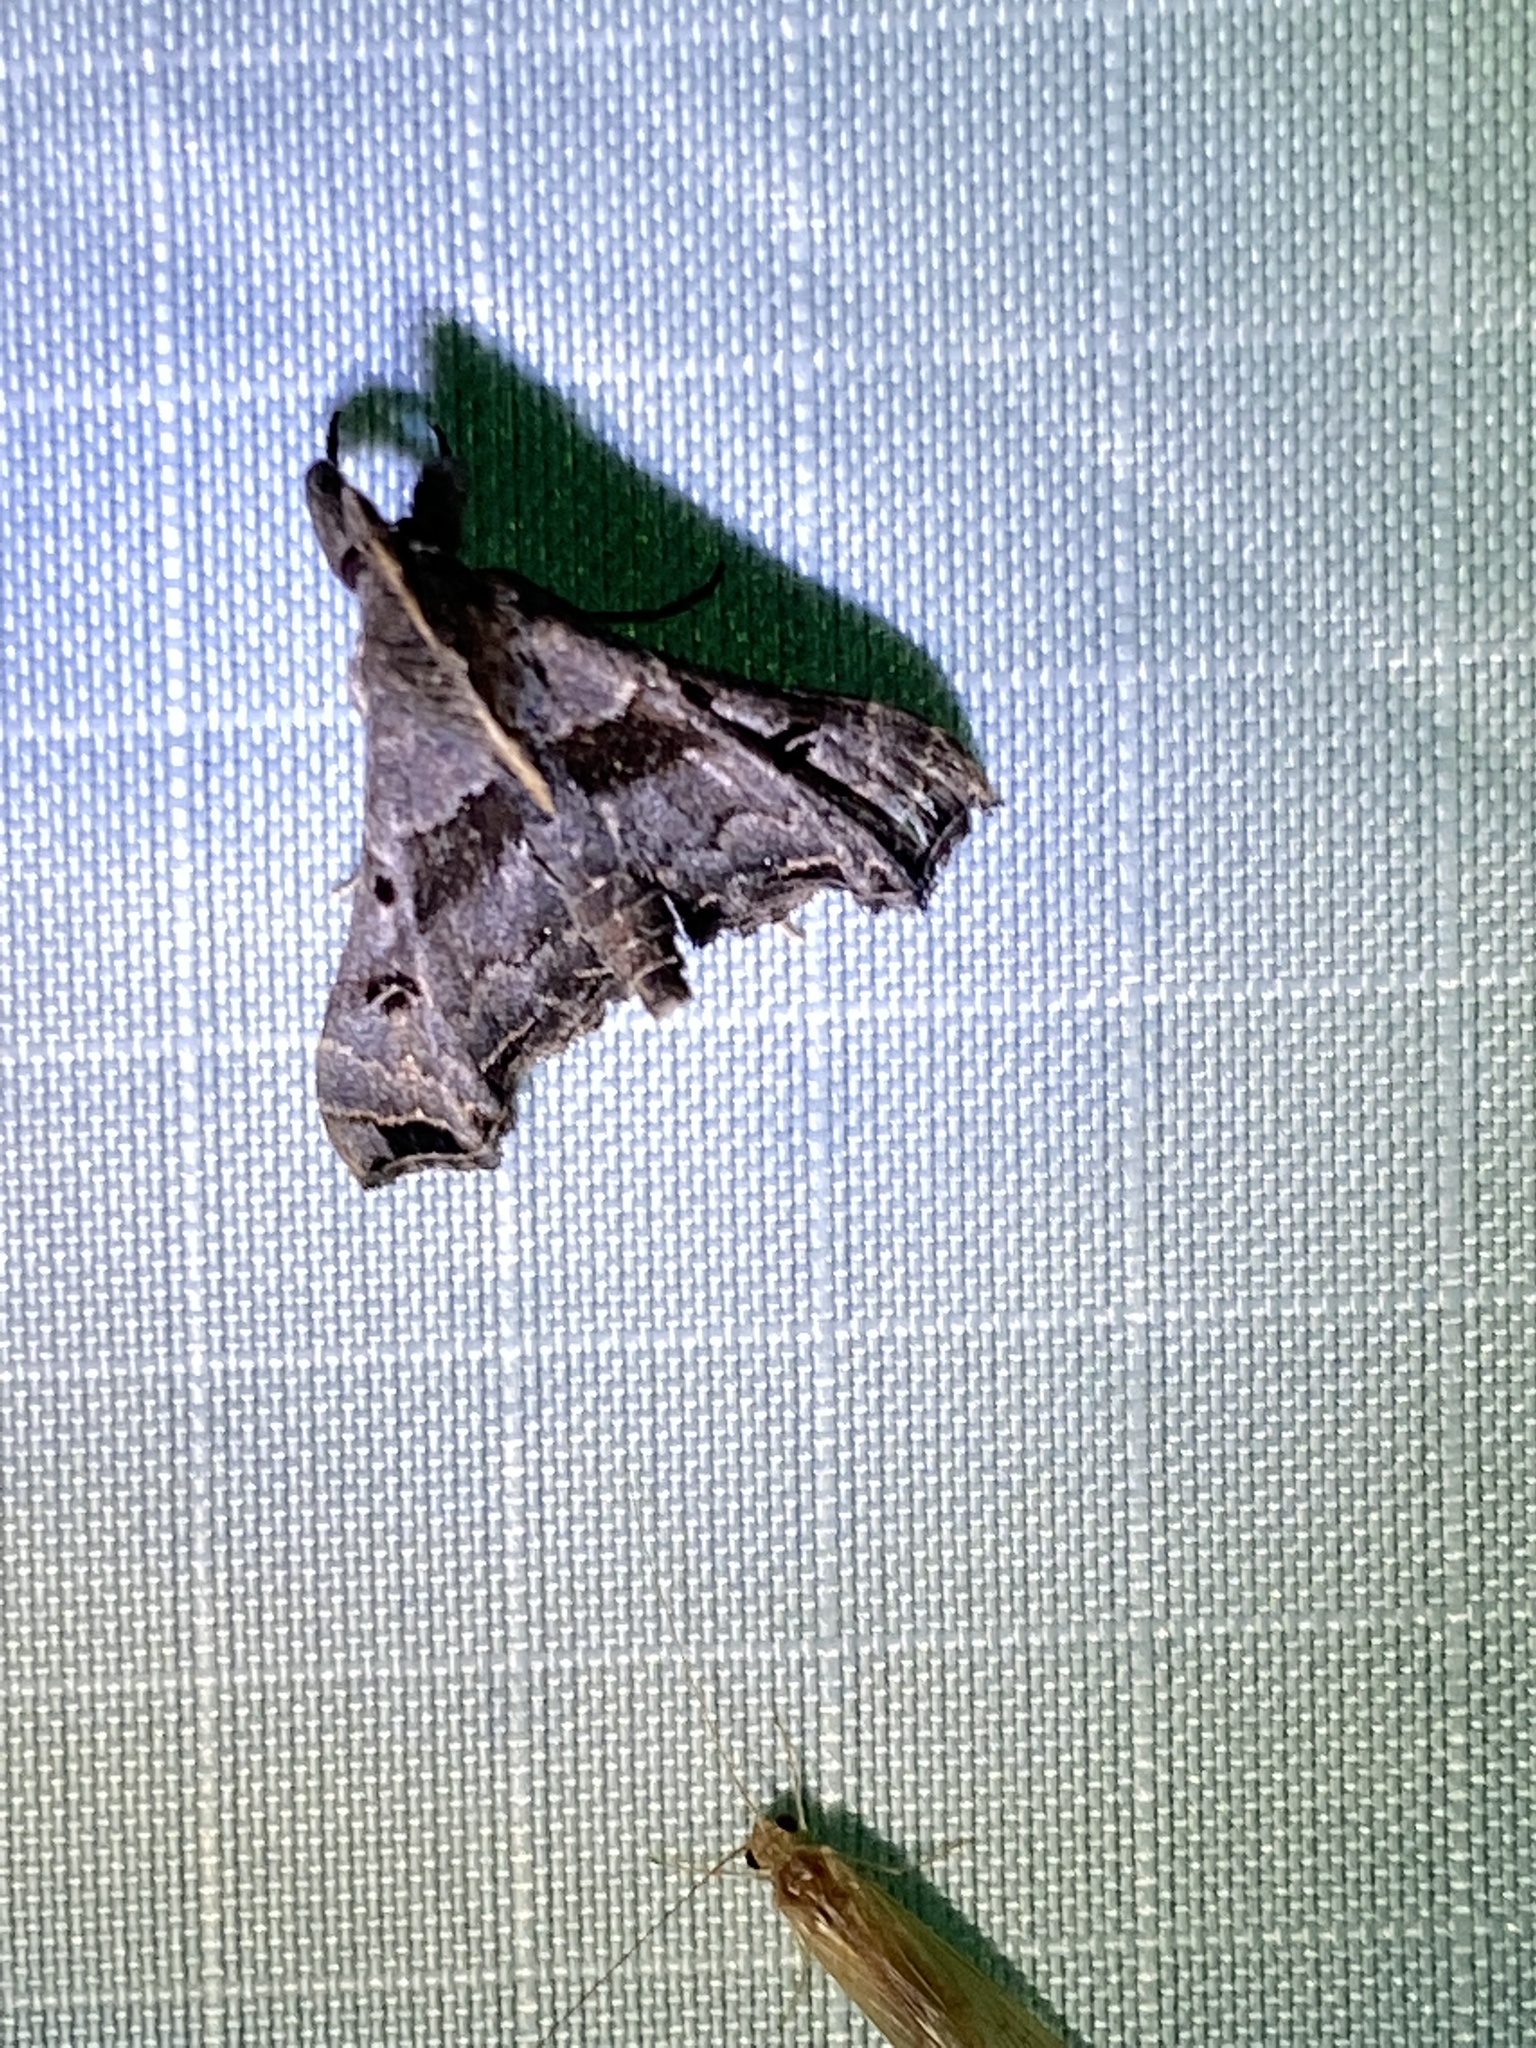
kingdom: Animalia
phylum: Arthropoda
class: Insecta
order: Lepidoptera
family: Erebidae
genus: Palthis
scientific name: Palthis asopialis
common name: Faint-spotted palthis moth
